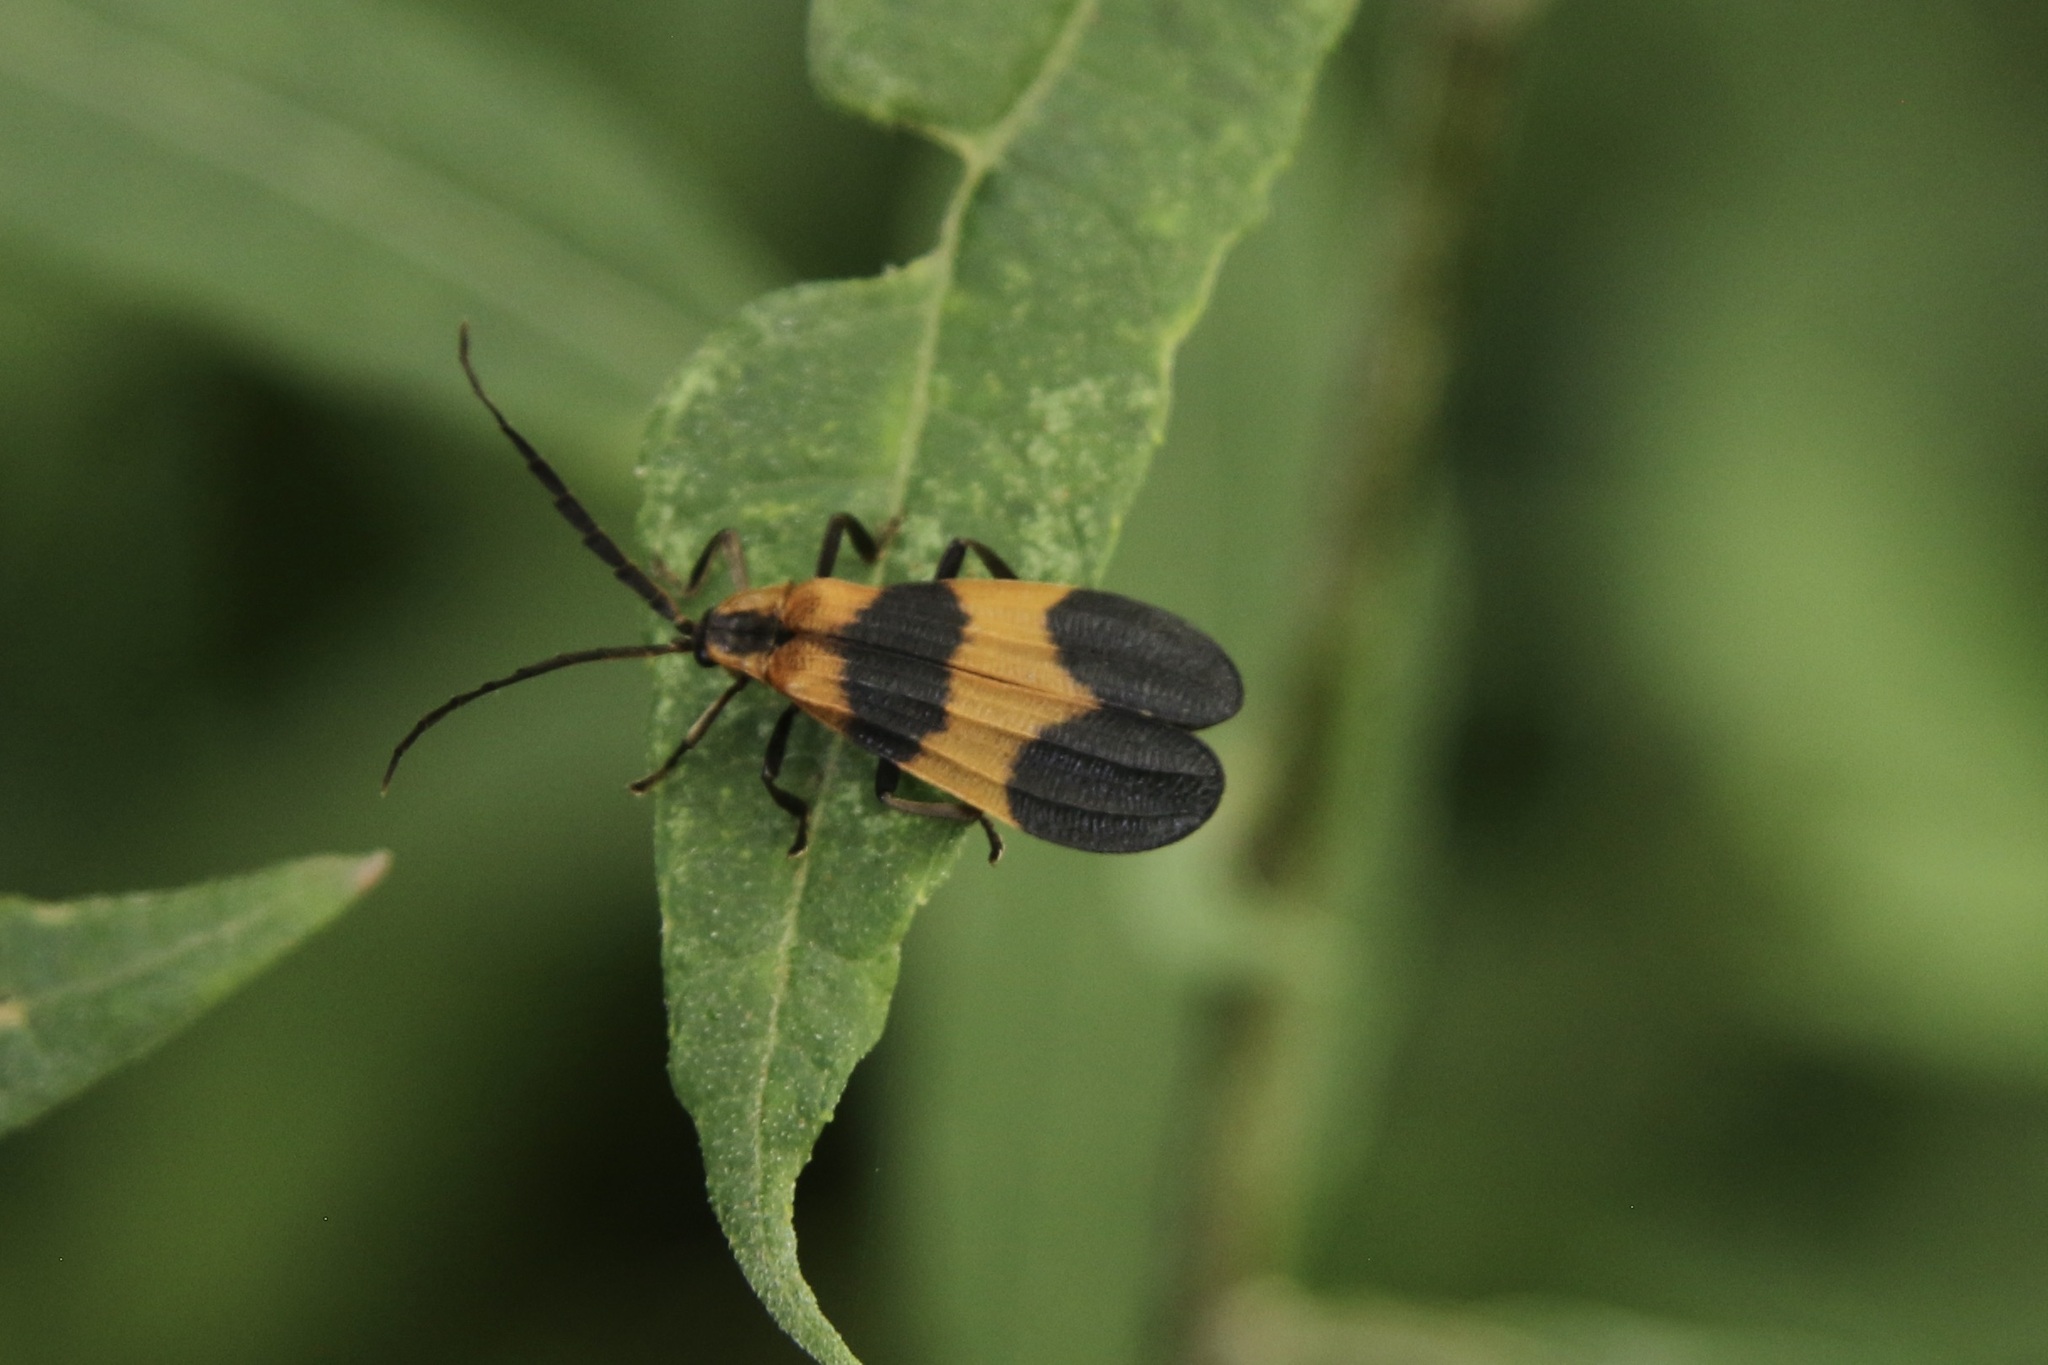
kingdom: Animalia
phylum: Arthropoda
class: Insecta
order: Coleoptera
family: Lycidae
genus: Calopteron
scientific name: Calopteron reticulatum
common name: Banded net-winged beetle
